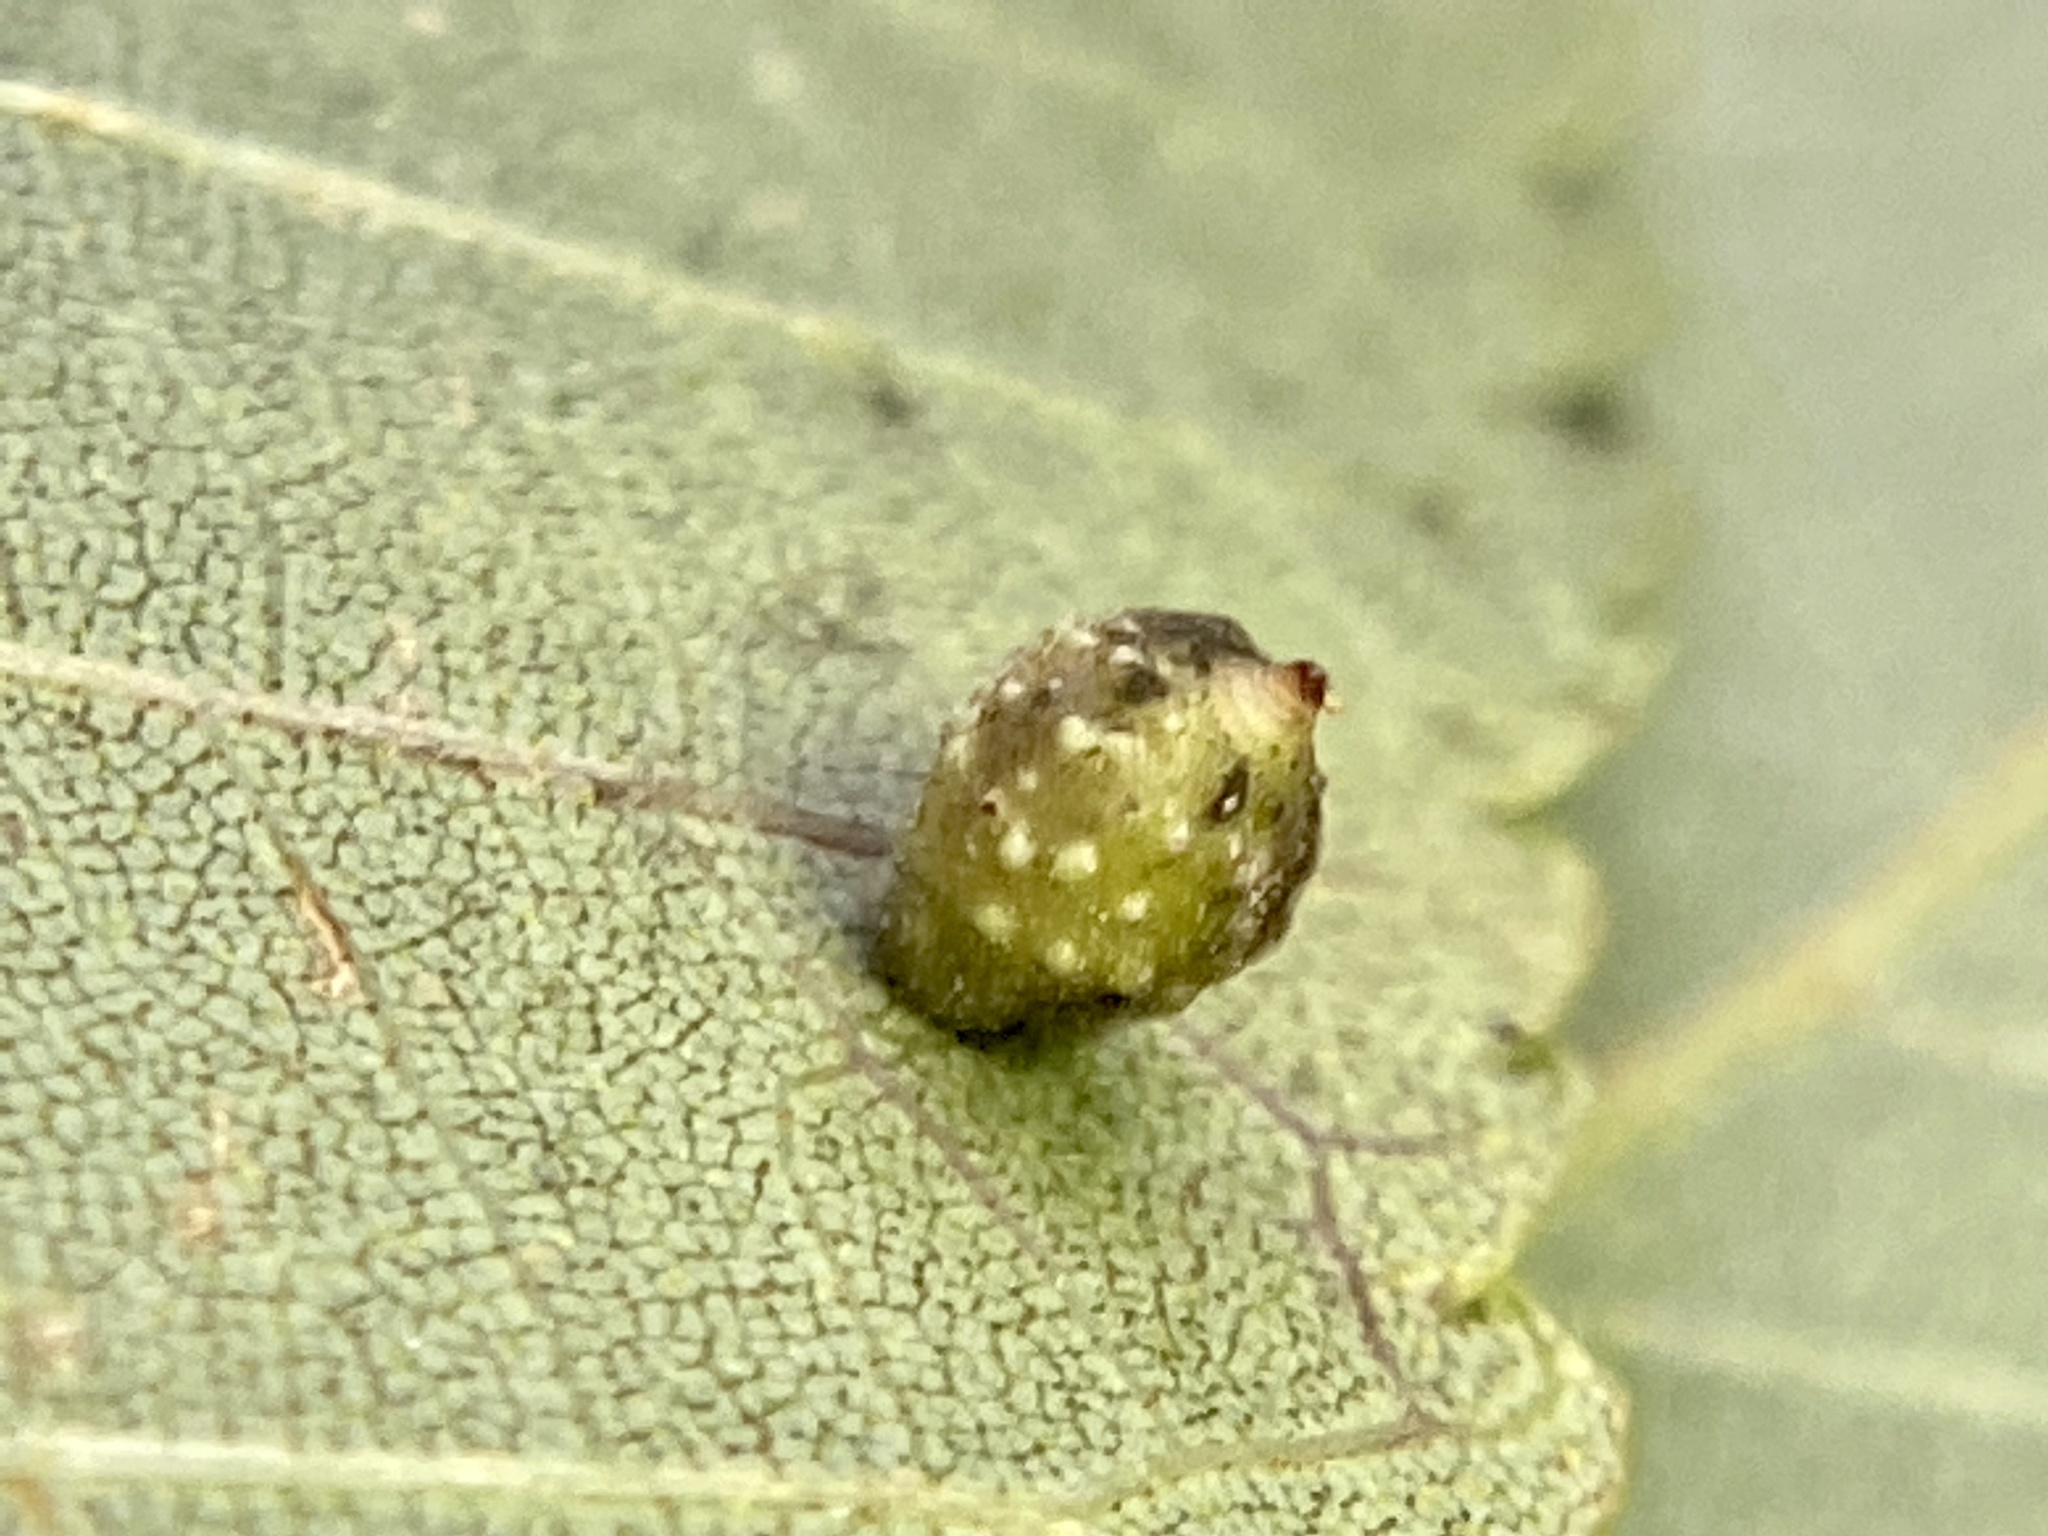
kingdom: Animalia
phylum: Arthropoda
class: Insecta
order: Diptera
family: Cecidomyiidae
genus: Caryomyia
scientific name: Caryomyia tuberidolium
